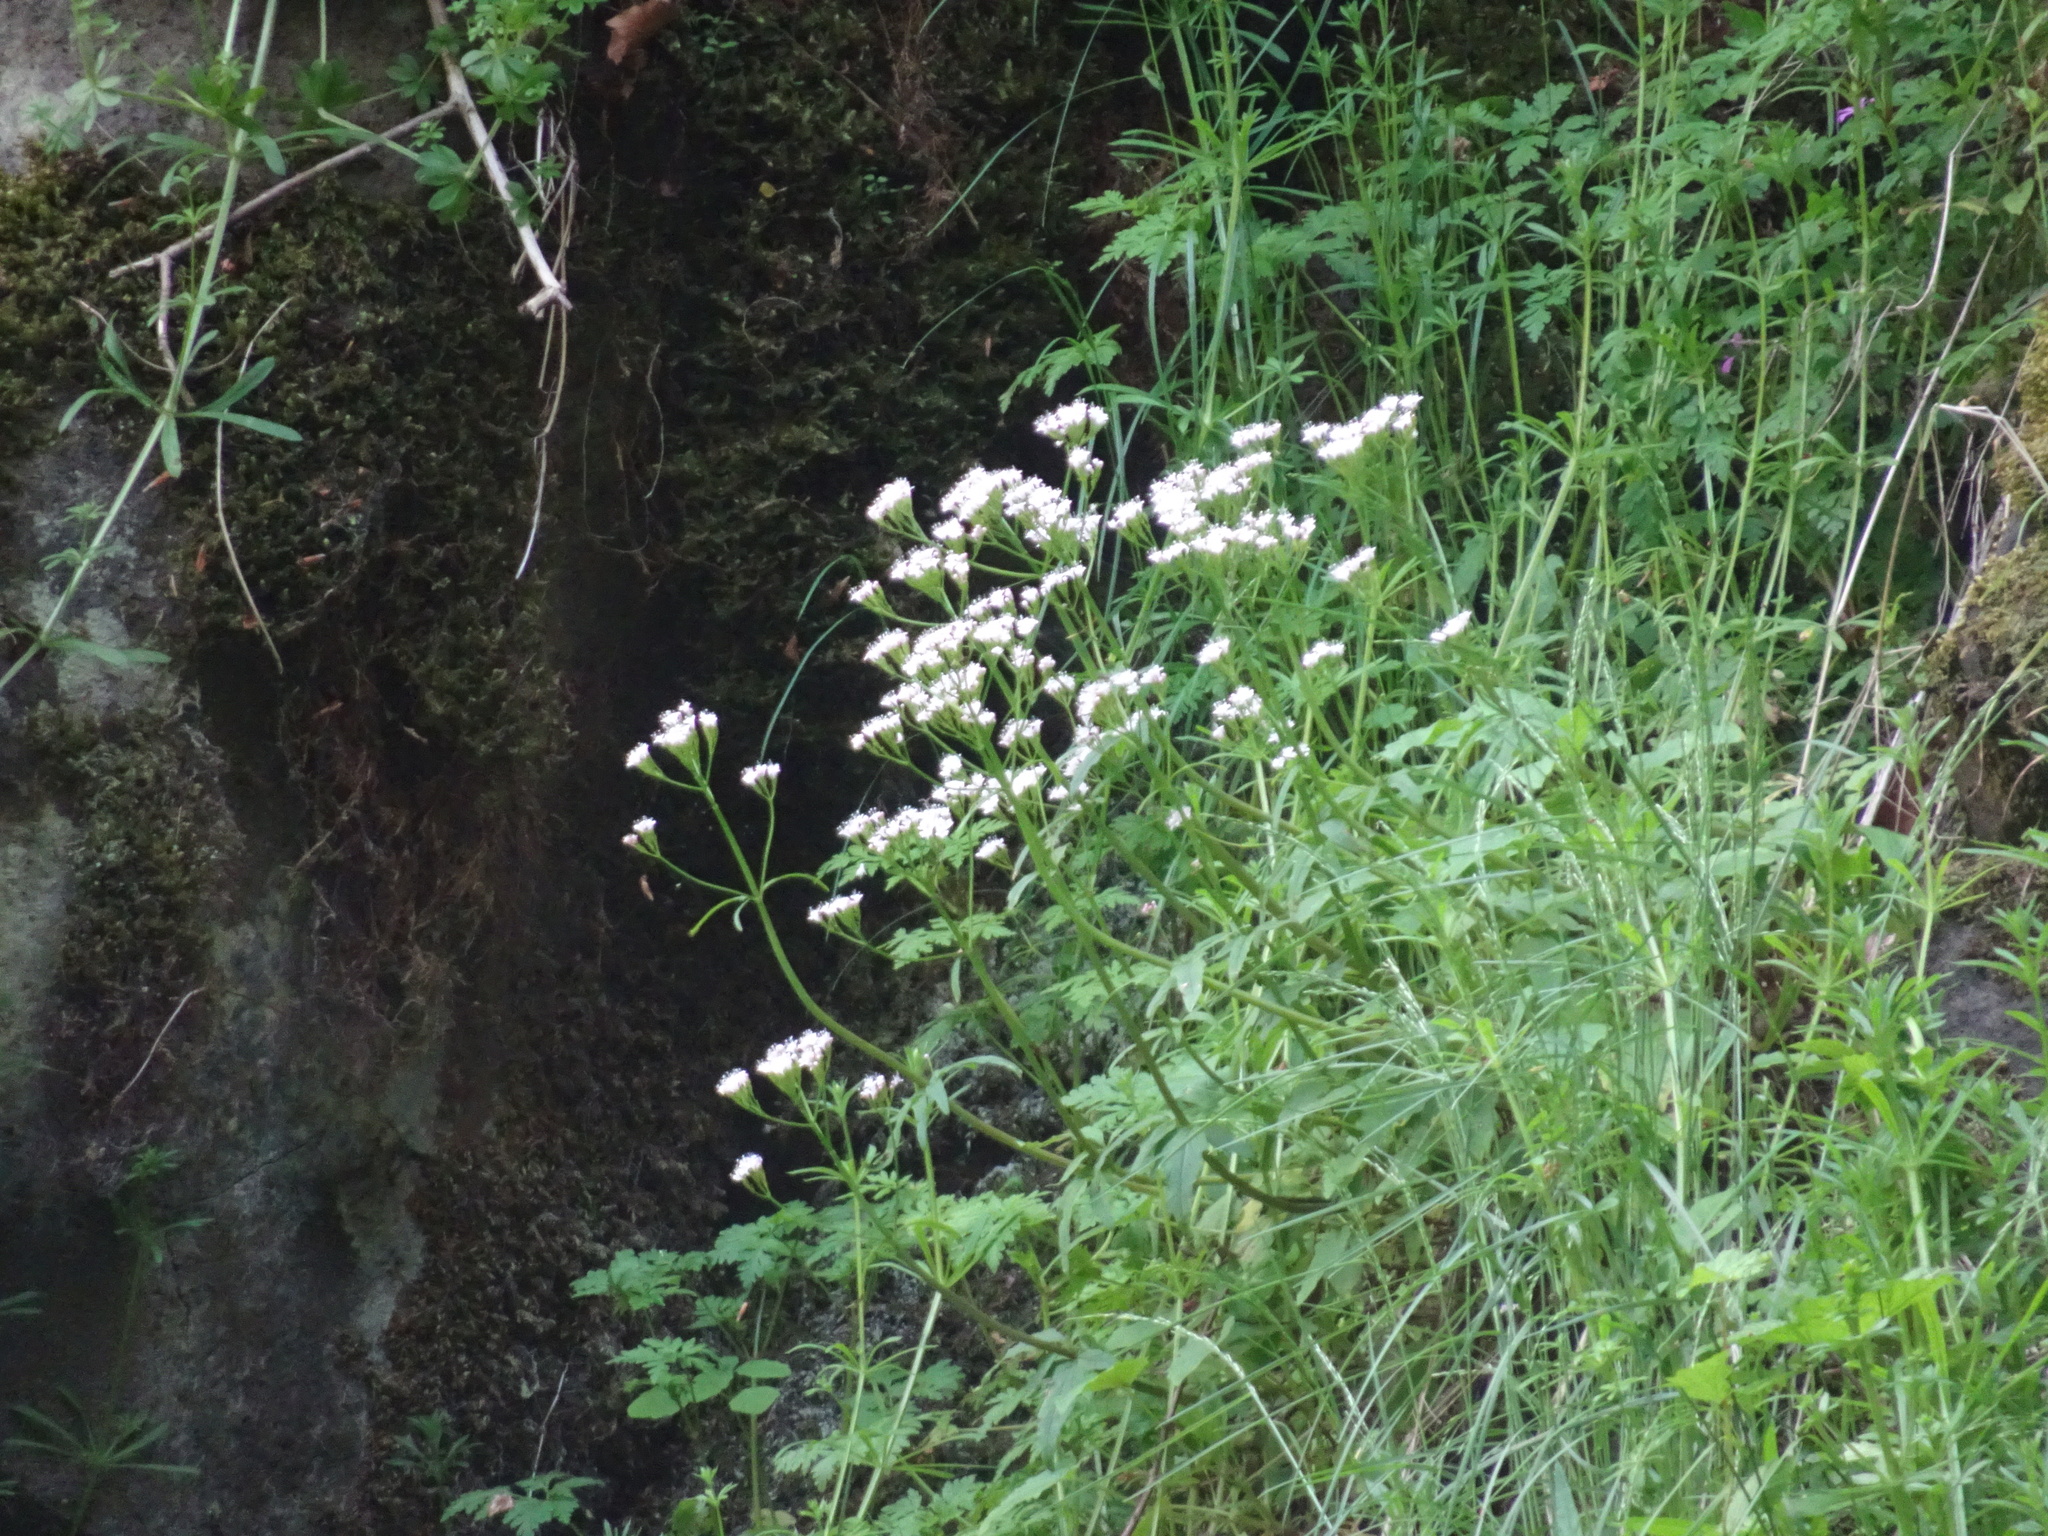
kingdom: Plantae
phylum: Tracheophyta
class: Magnoliopsida
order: Dipsacales
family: Caprifoliaceae
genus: Valeriana
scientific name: Valeriana tripteris
